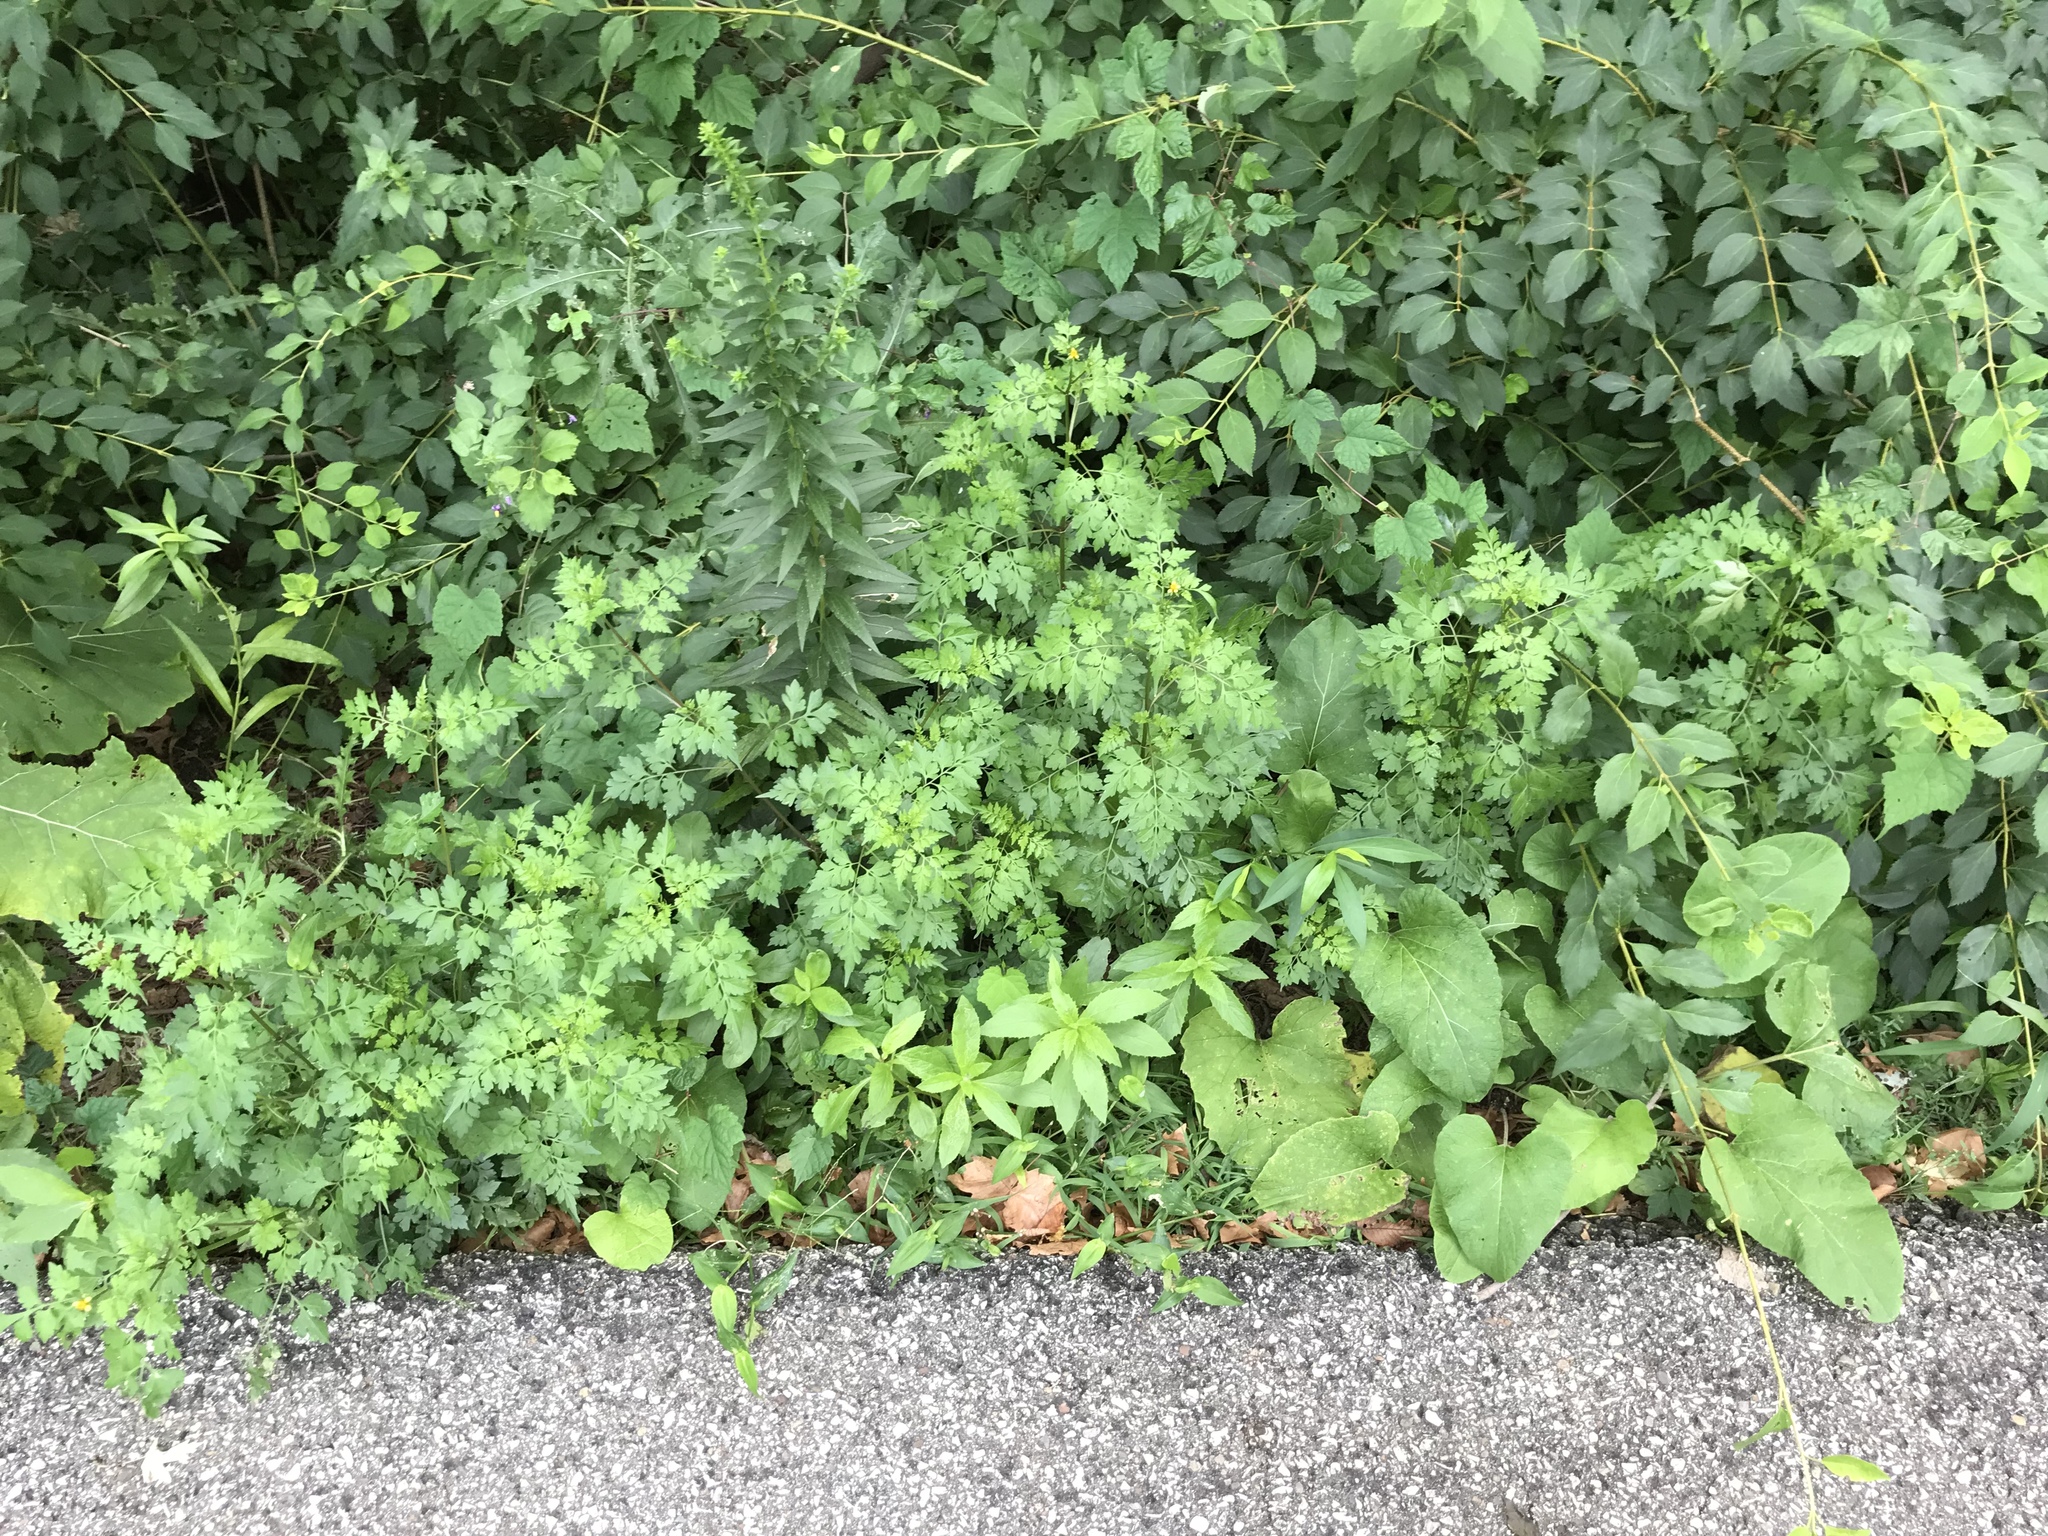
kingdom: Plantae
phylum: Tracheophyta
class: Magnoliopsida
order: Asterales
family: Asteraceae
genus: Bidens
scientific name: Bidens bipinnata
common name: Spanish-needles
